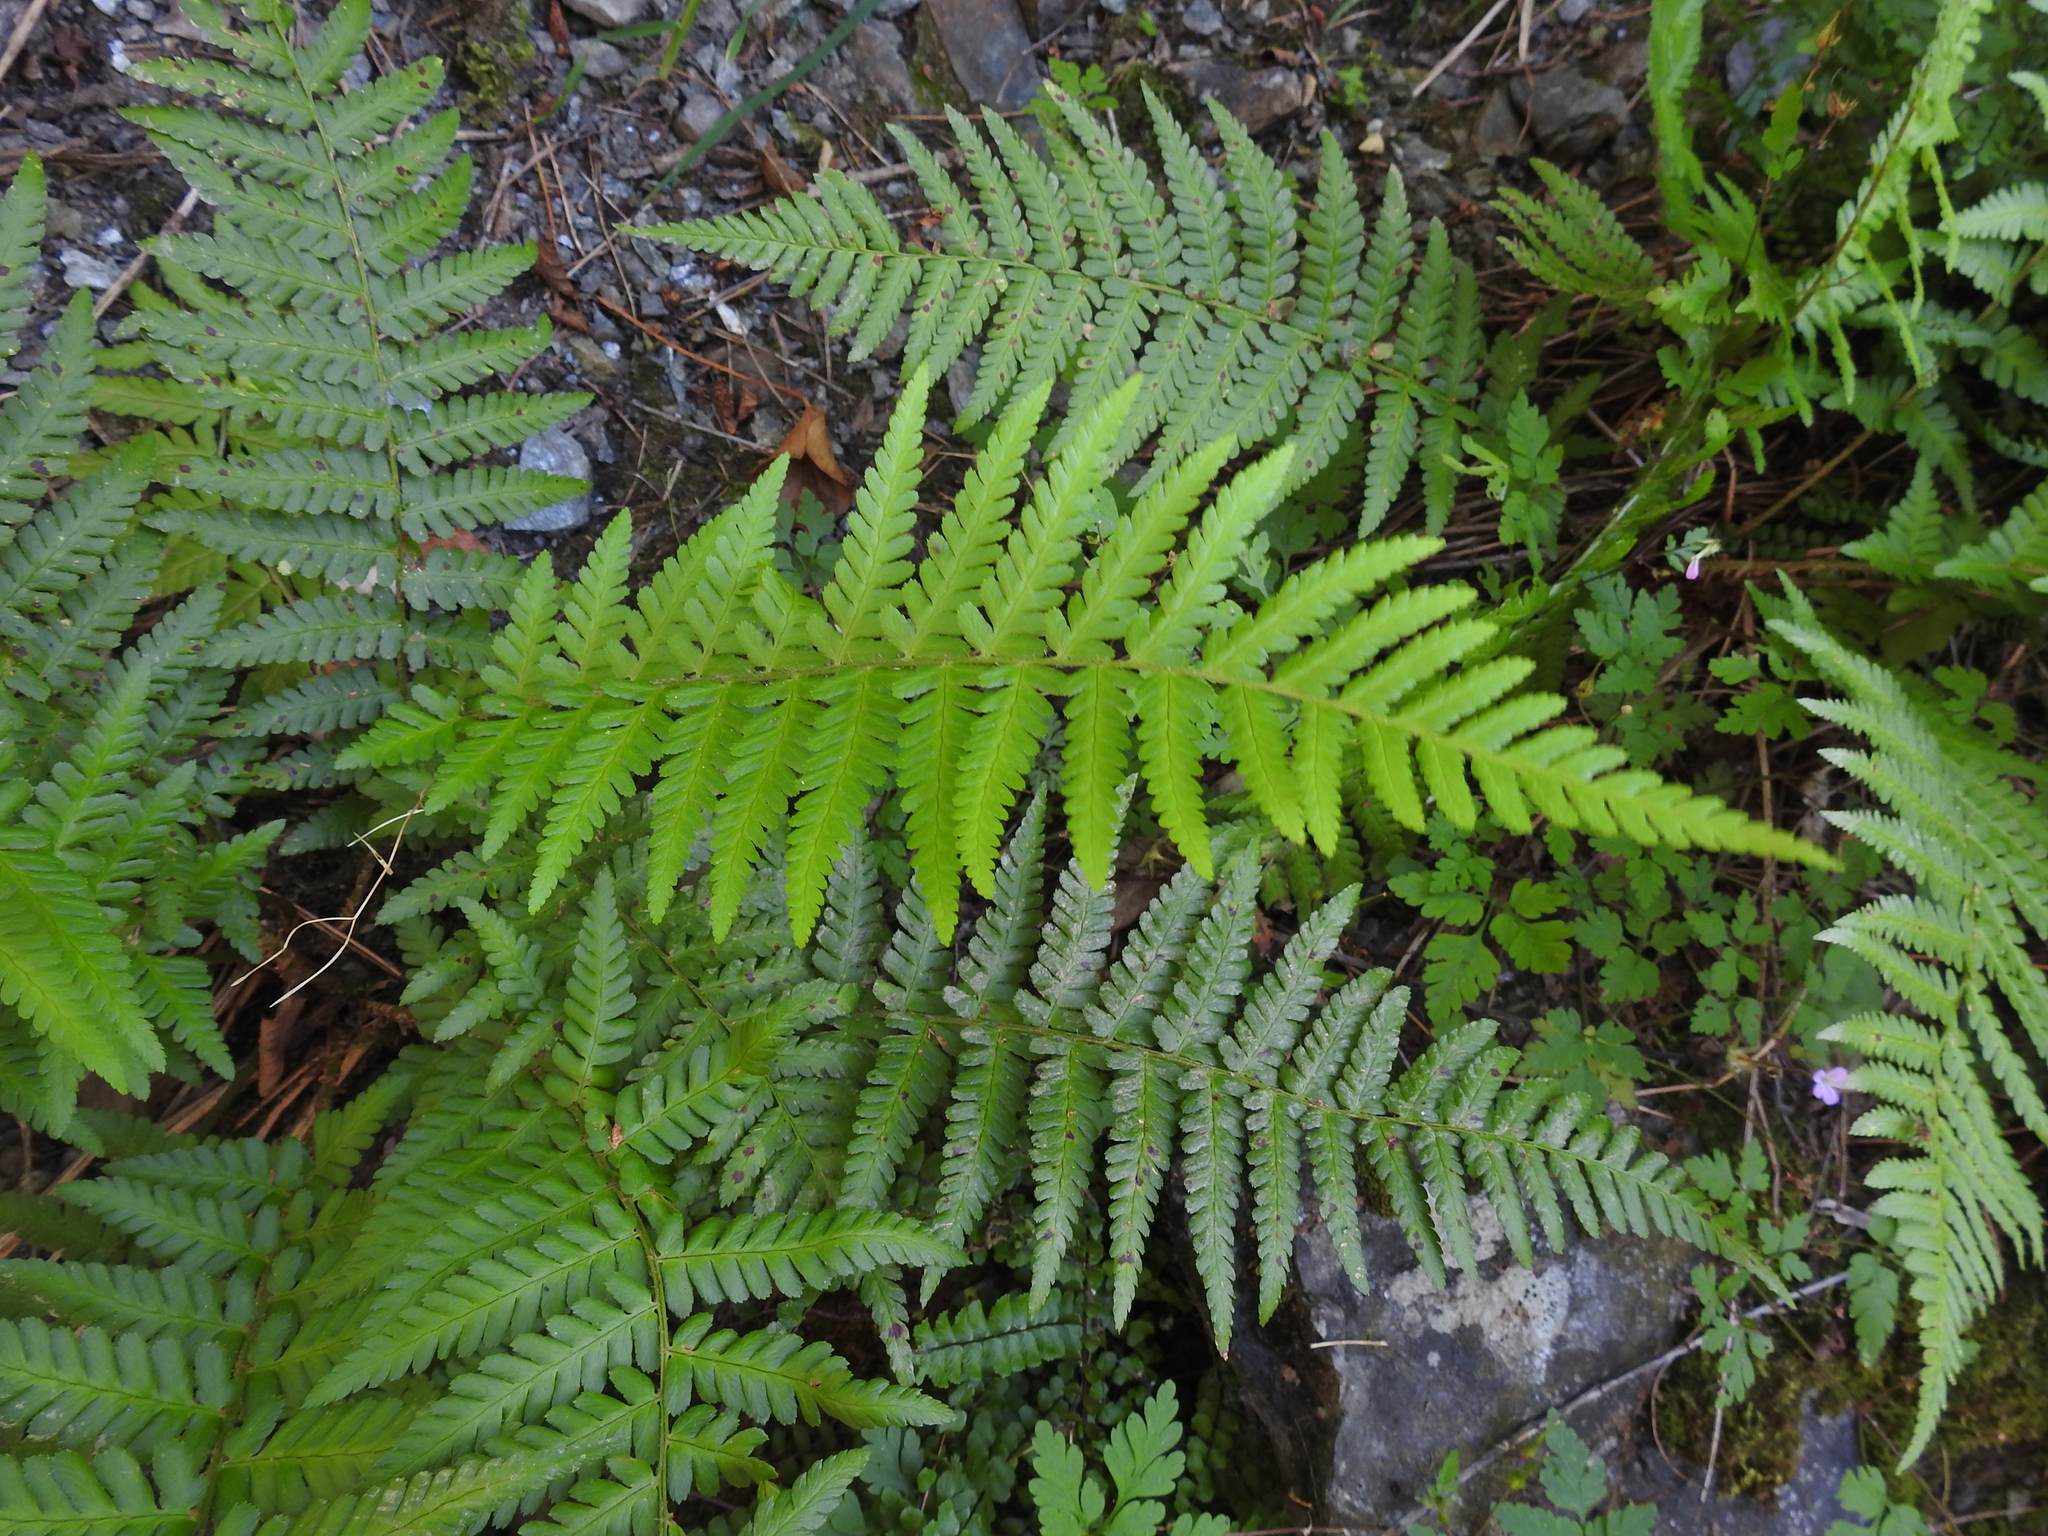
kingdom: Plantae
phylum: Tracheophyta
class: Polypodiopsida
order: Polypodiales
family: Dryopteridaceae
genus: Dryopteris
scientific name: Dryopteris filix-mas
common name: Male fern
